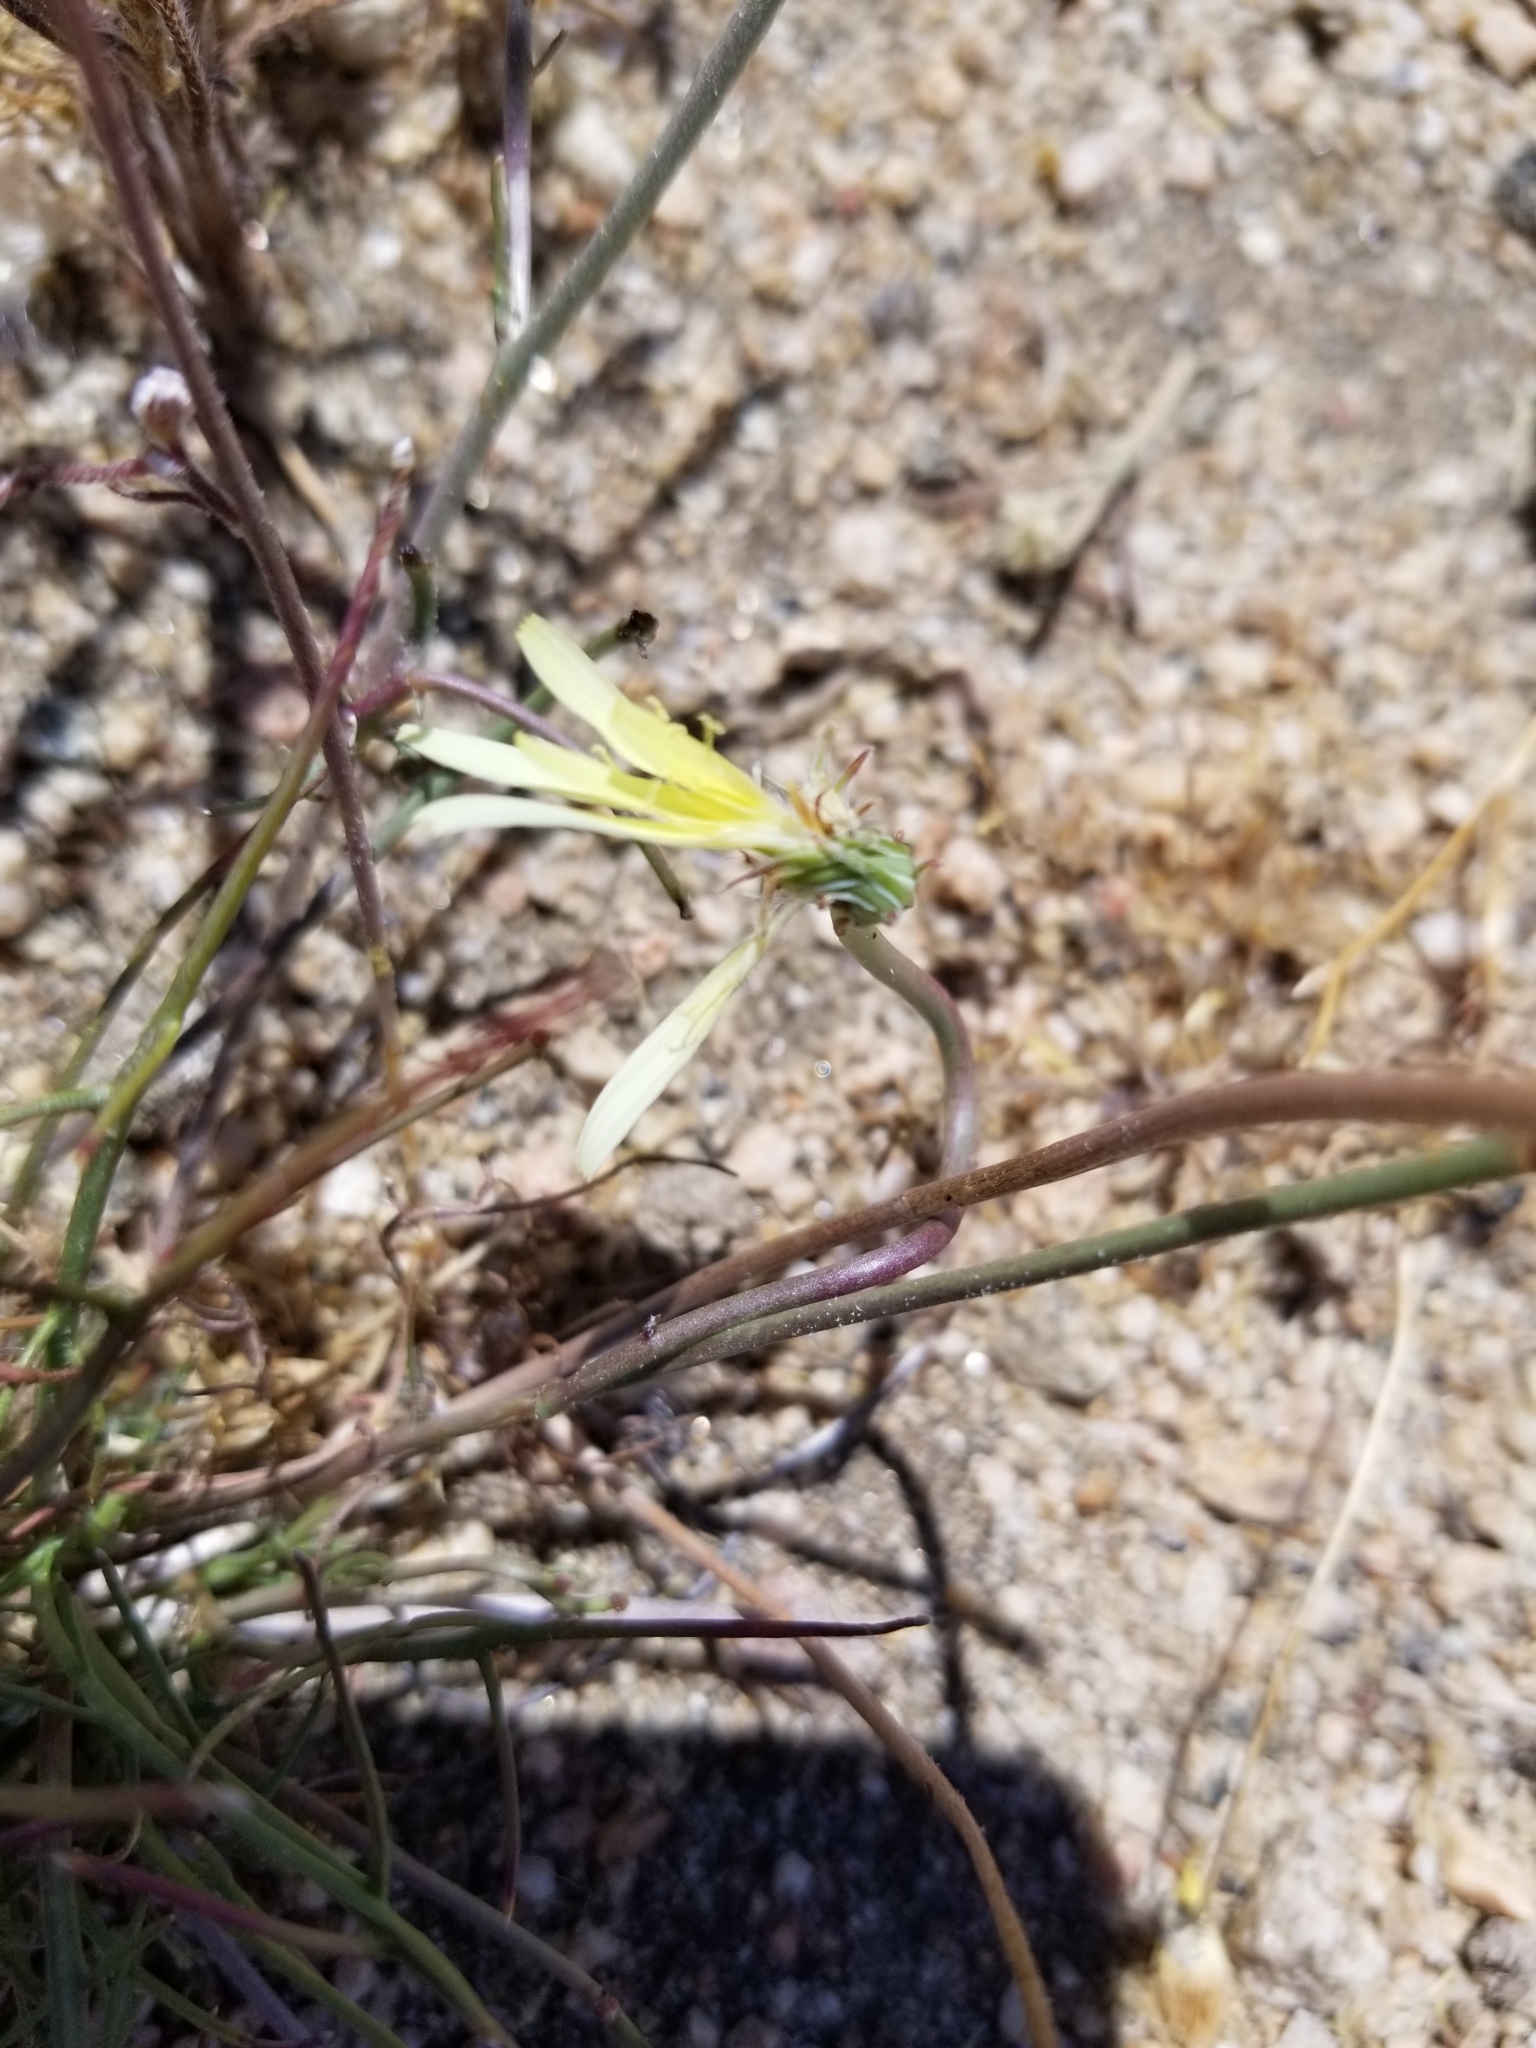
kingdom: Plantae
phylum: Tracheophyta
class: Magnoliopsida
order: Asterales
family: Asteraceae
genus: Malacothrix
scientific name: Malacothrix glabrata
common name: Smooth desert-dandelion
